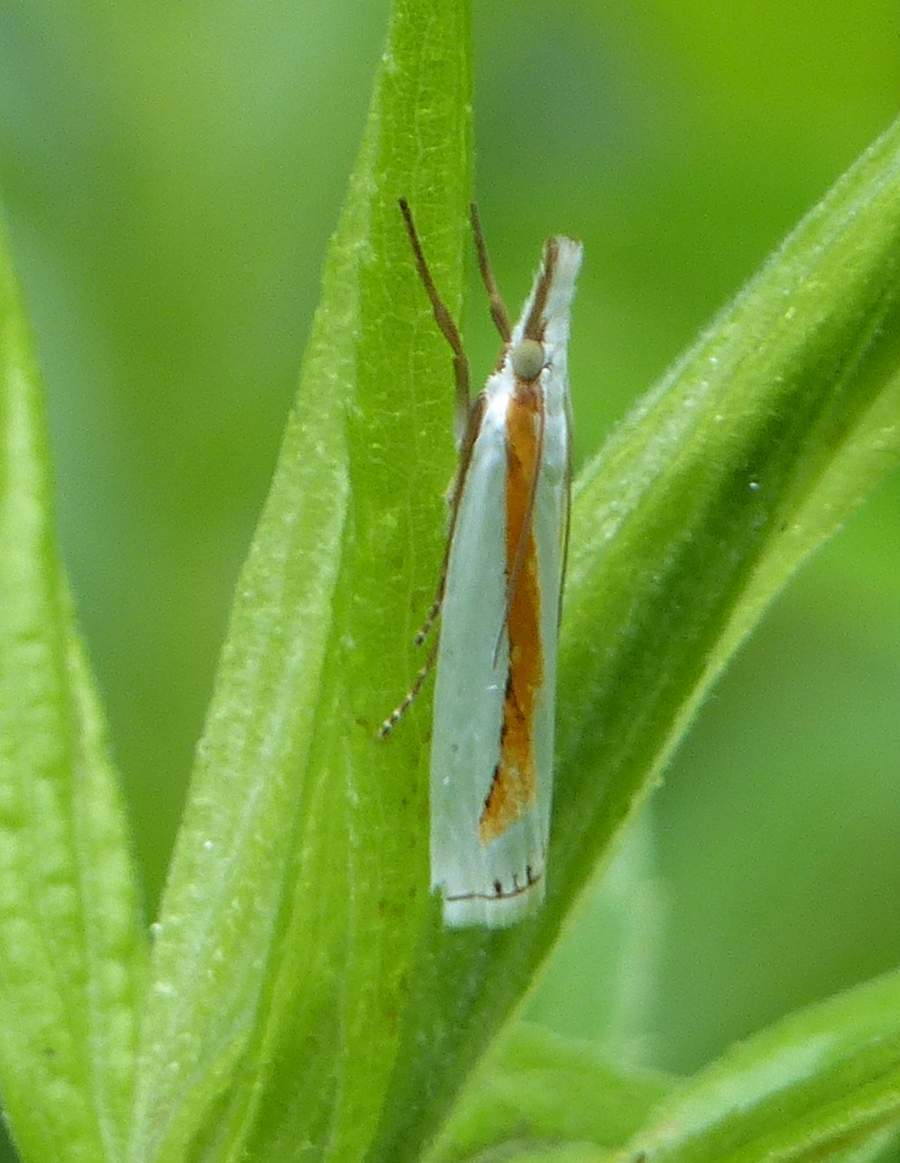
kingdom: Animalia
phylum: Arthropoda
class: Insecta
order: Lepidoptera
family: Crambidae
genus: Crambus
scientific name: Crambus girardellus
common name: Girard's grass-veneer
